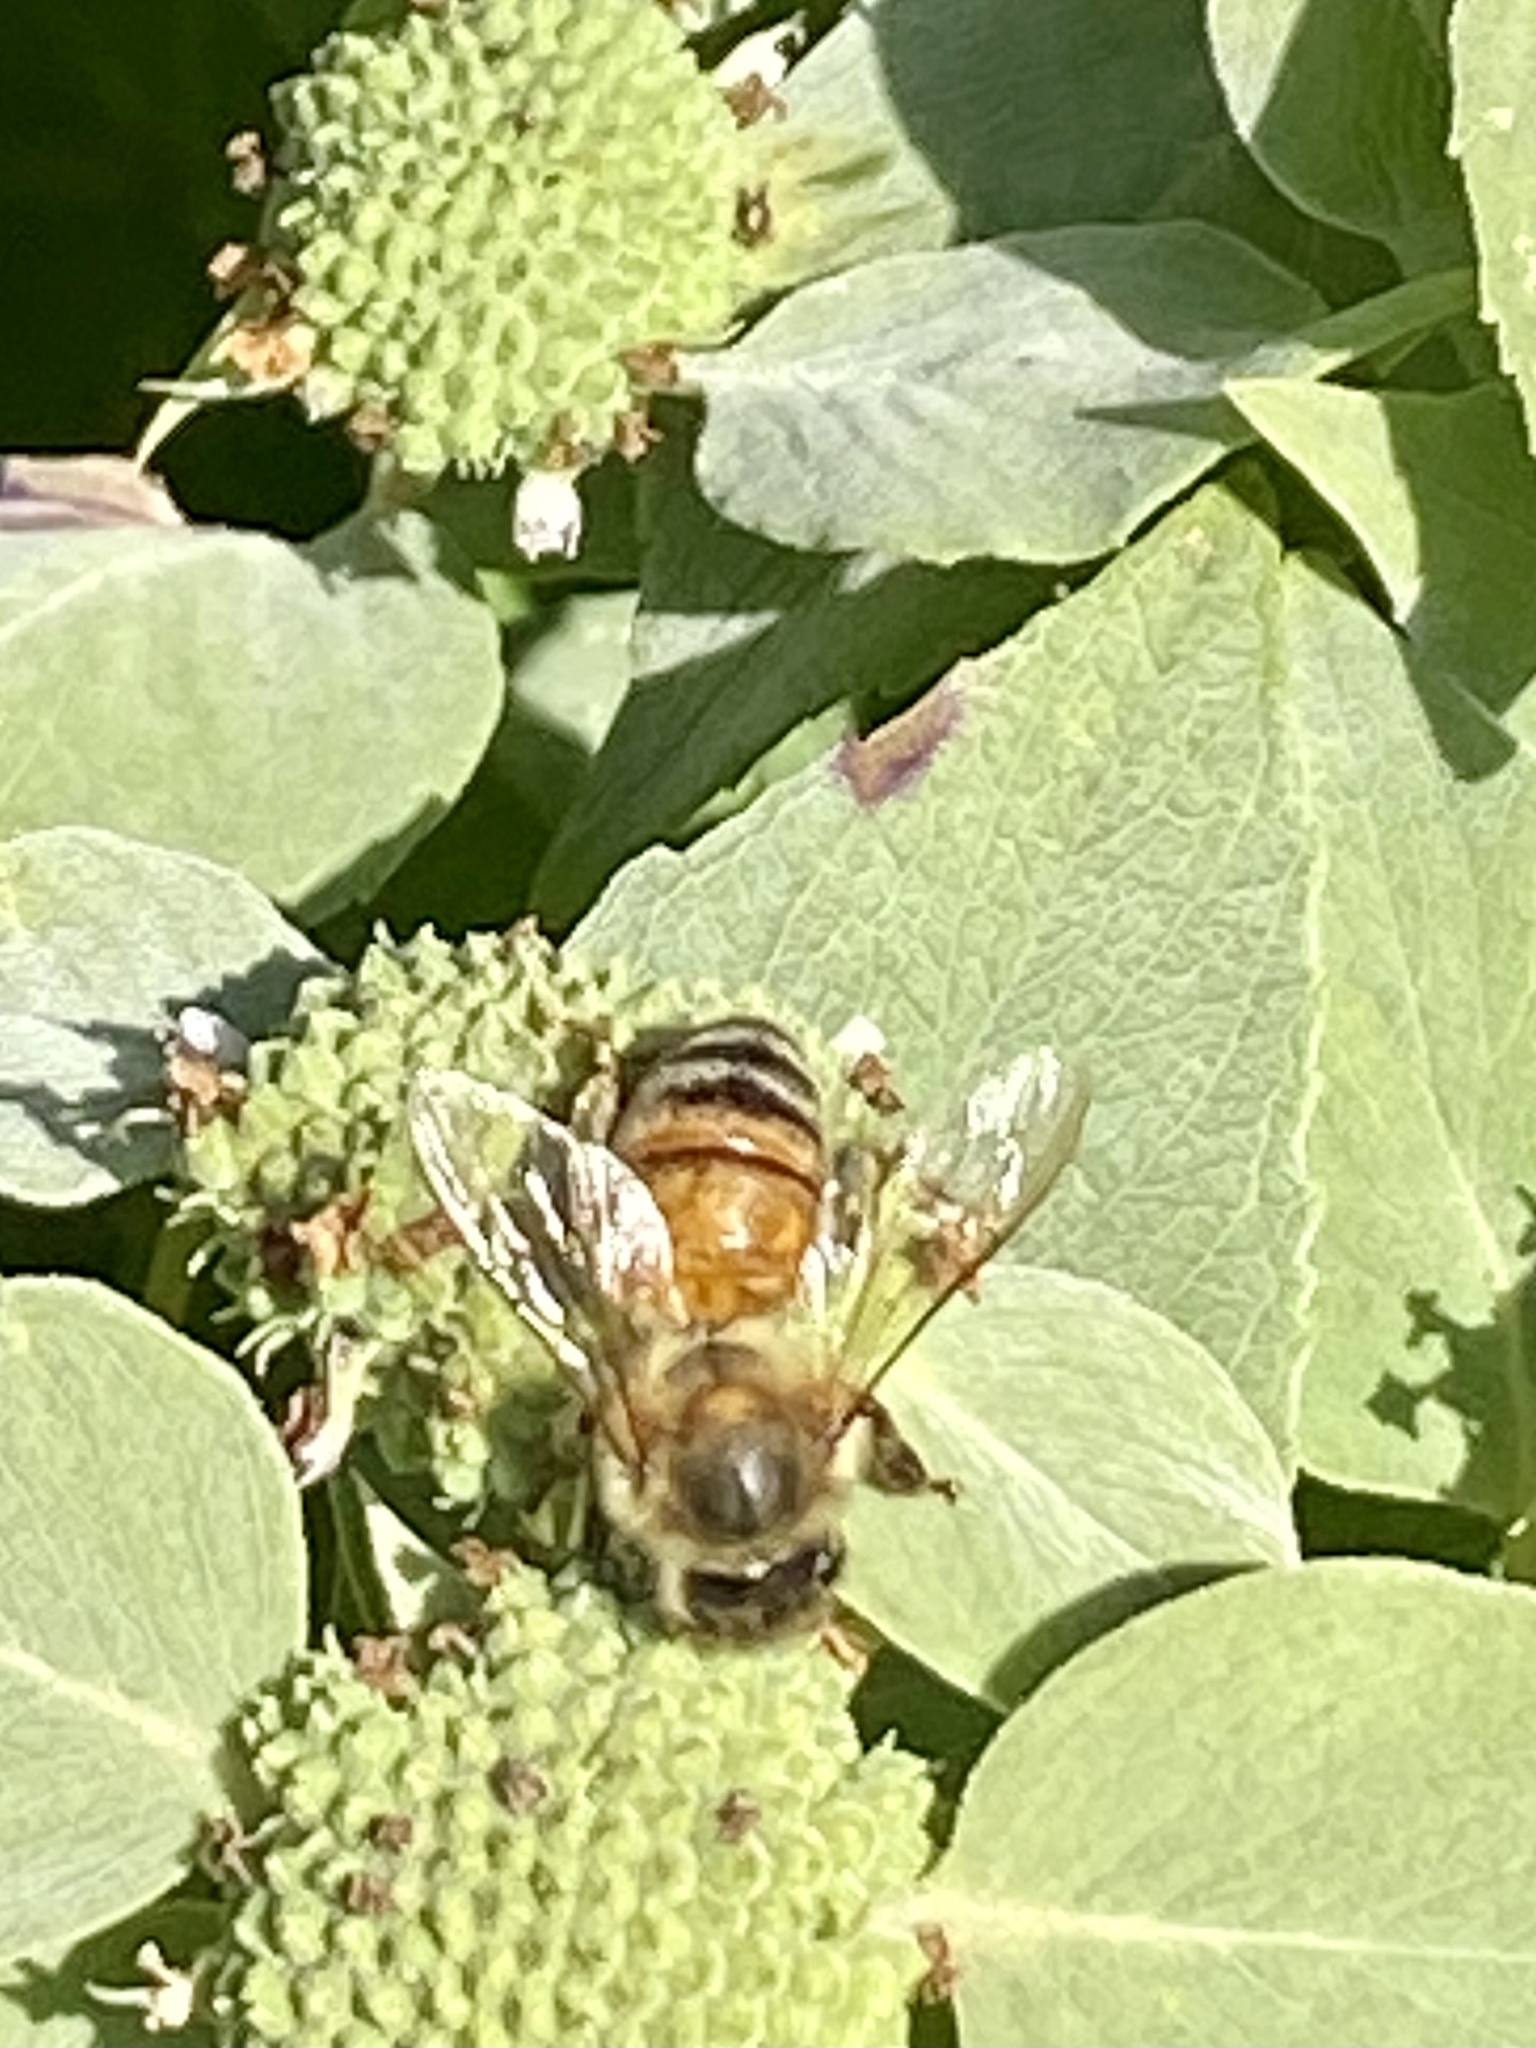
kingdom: Animalia
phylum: Arthropoda
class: Insecta
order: Hymenoptera
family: Apidae
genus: Apis
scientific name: Apis mellifera
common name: Honey bee
